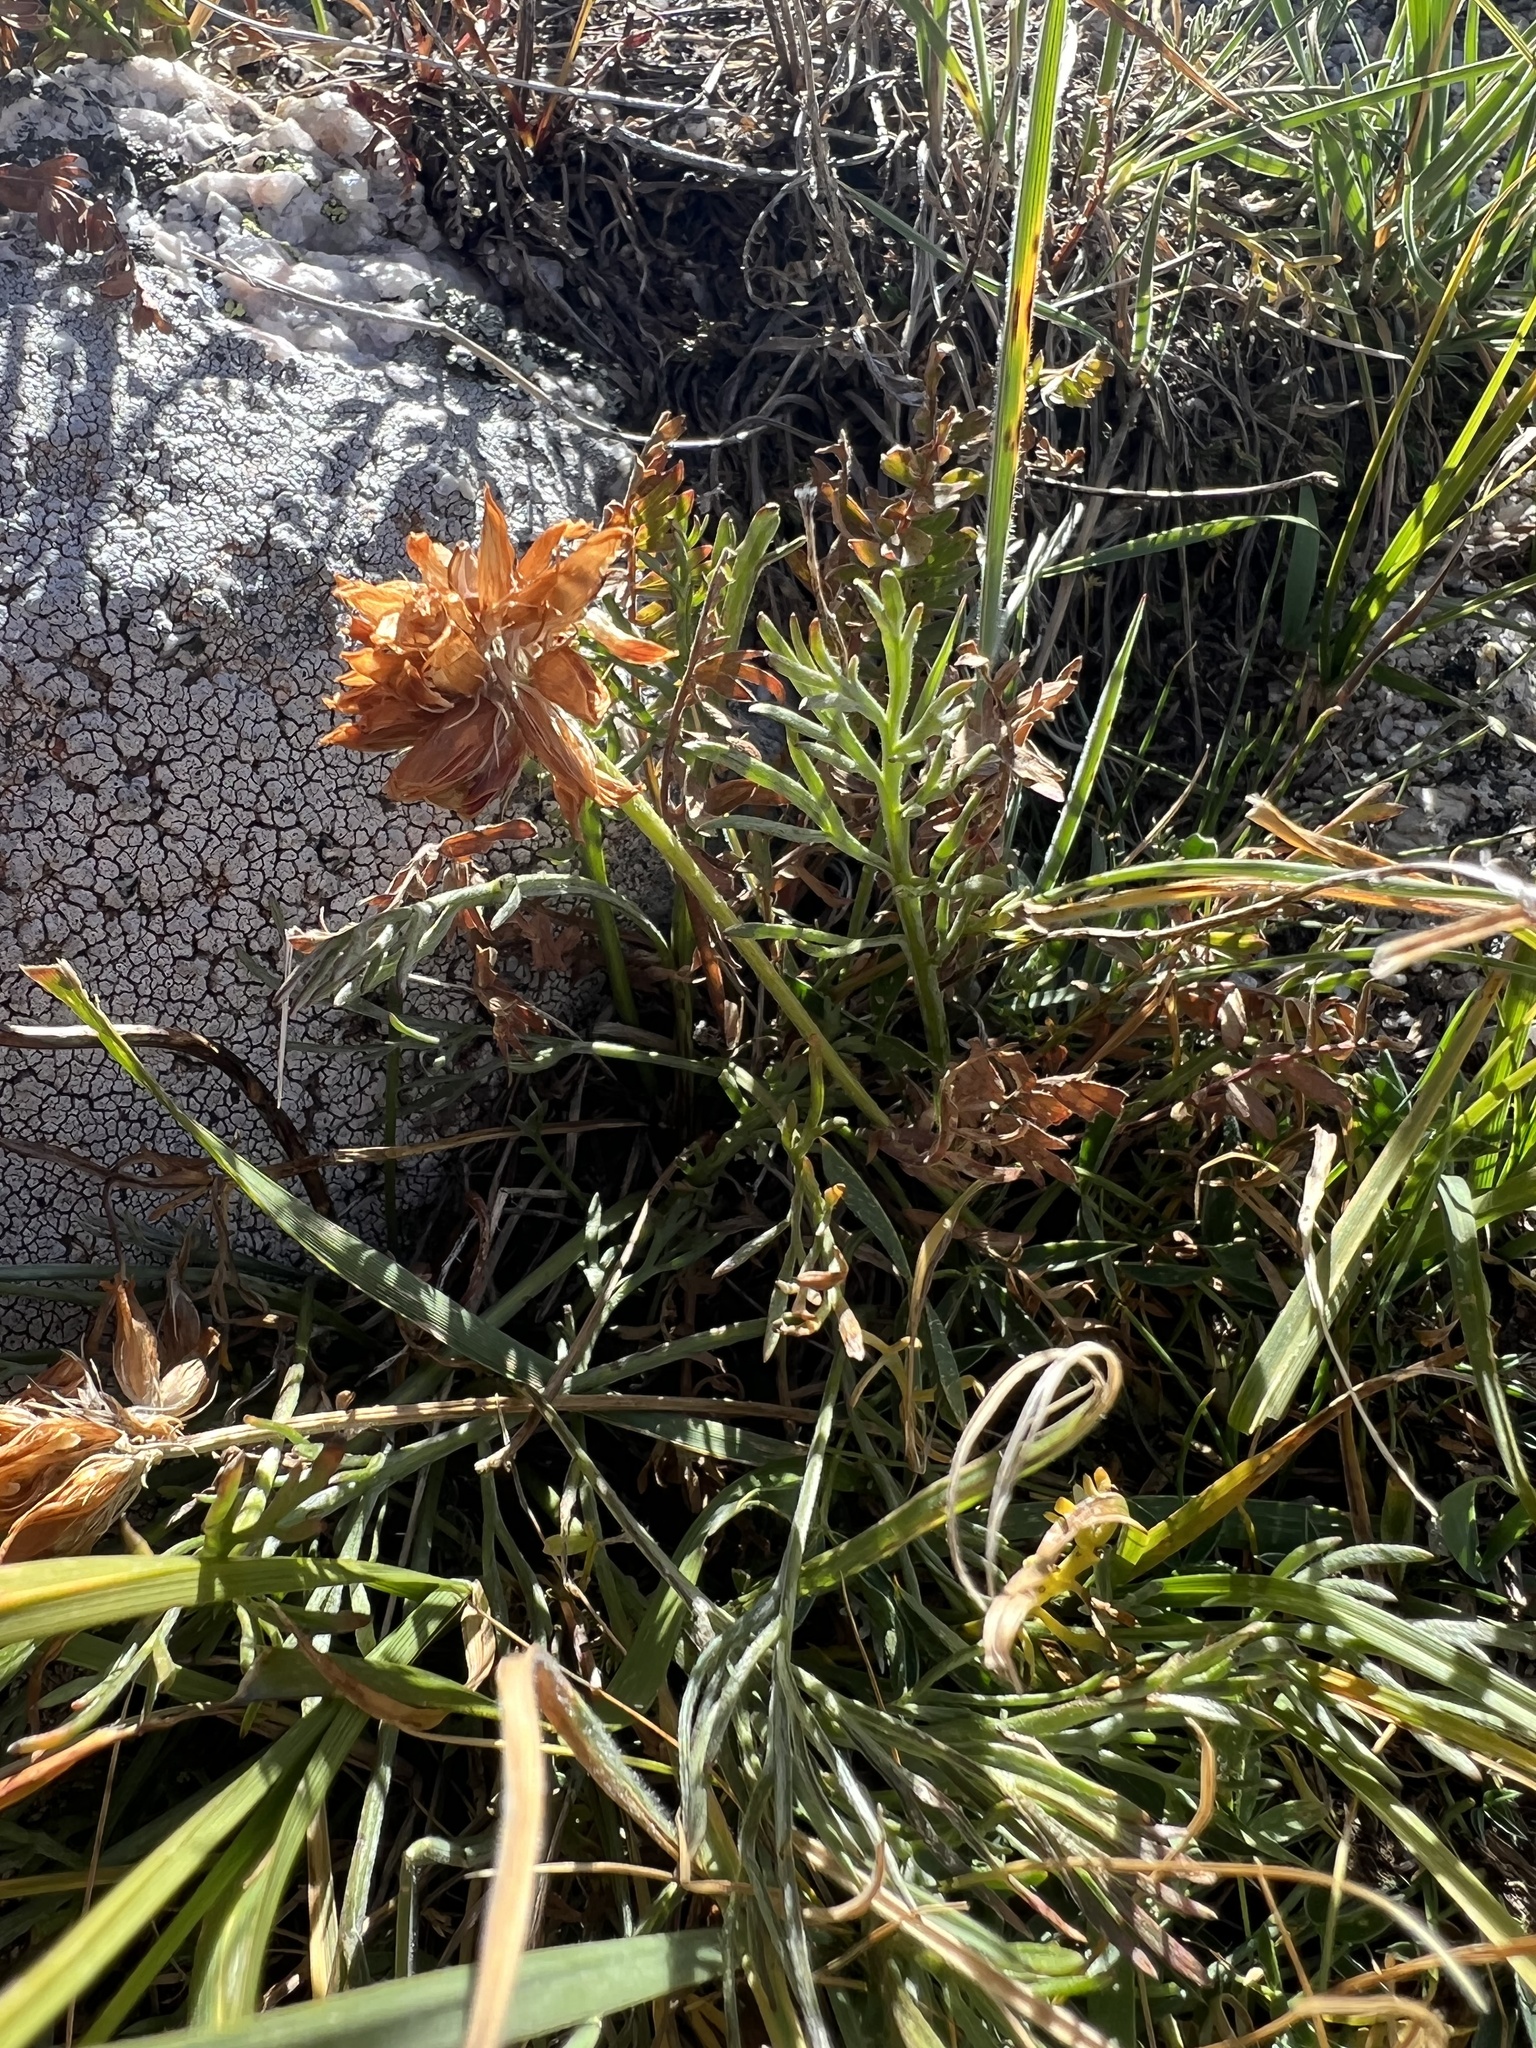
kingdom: Plantae
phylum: Tracheophyta
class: Magnoliopsida
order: Fabales
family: Fabaceae
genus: Trifolium
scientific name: Trifolium dasyphyllum
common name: Whip-root clover
